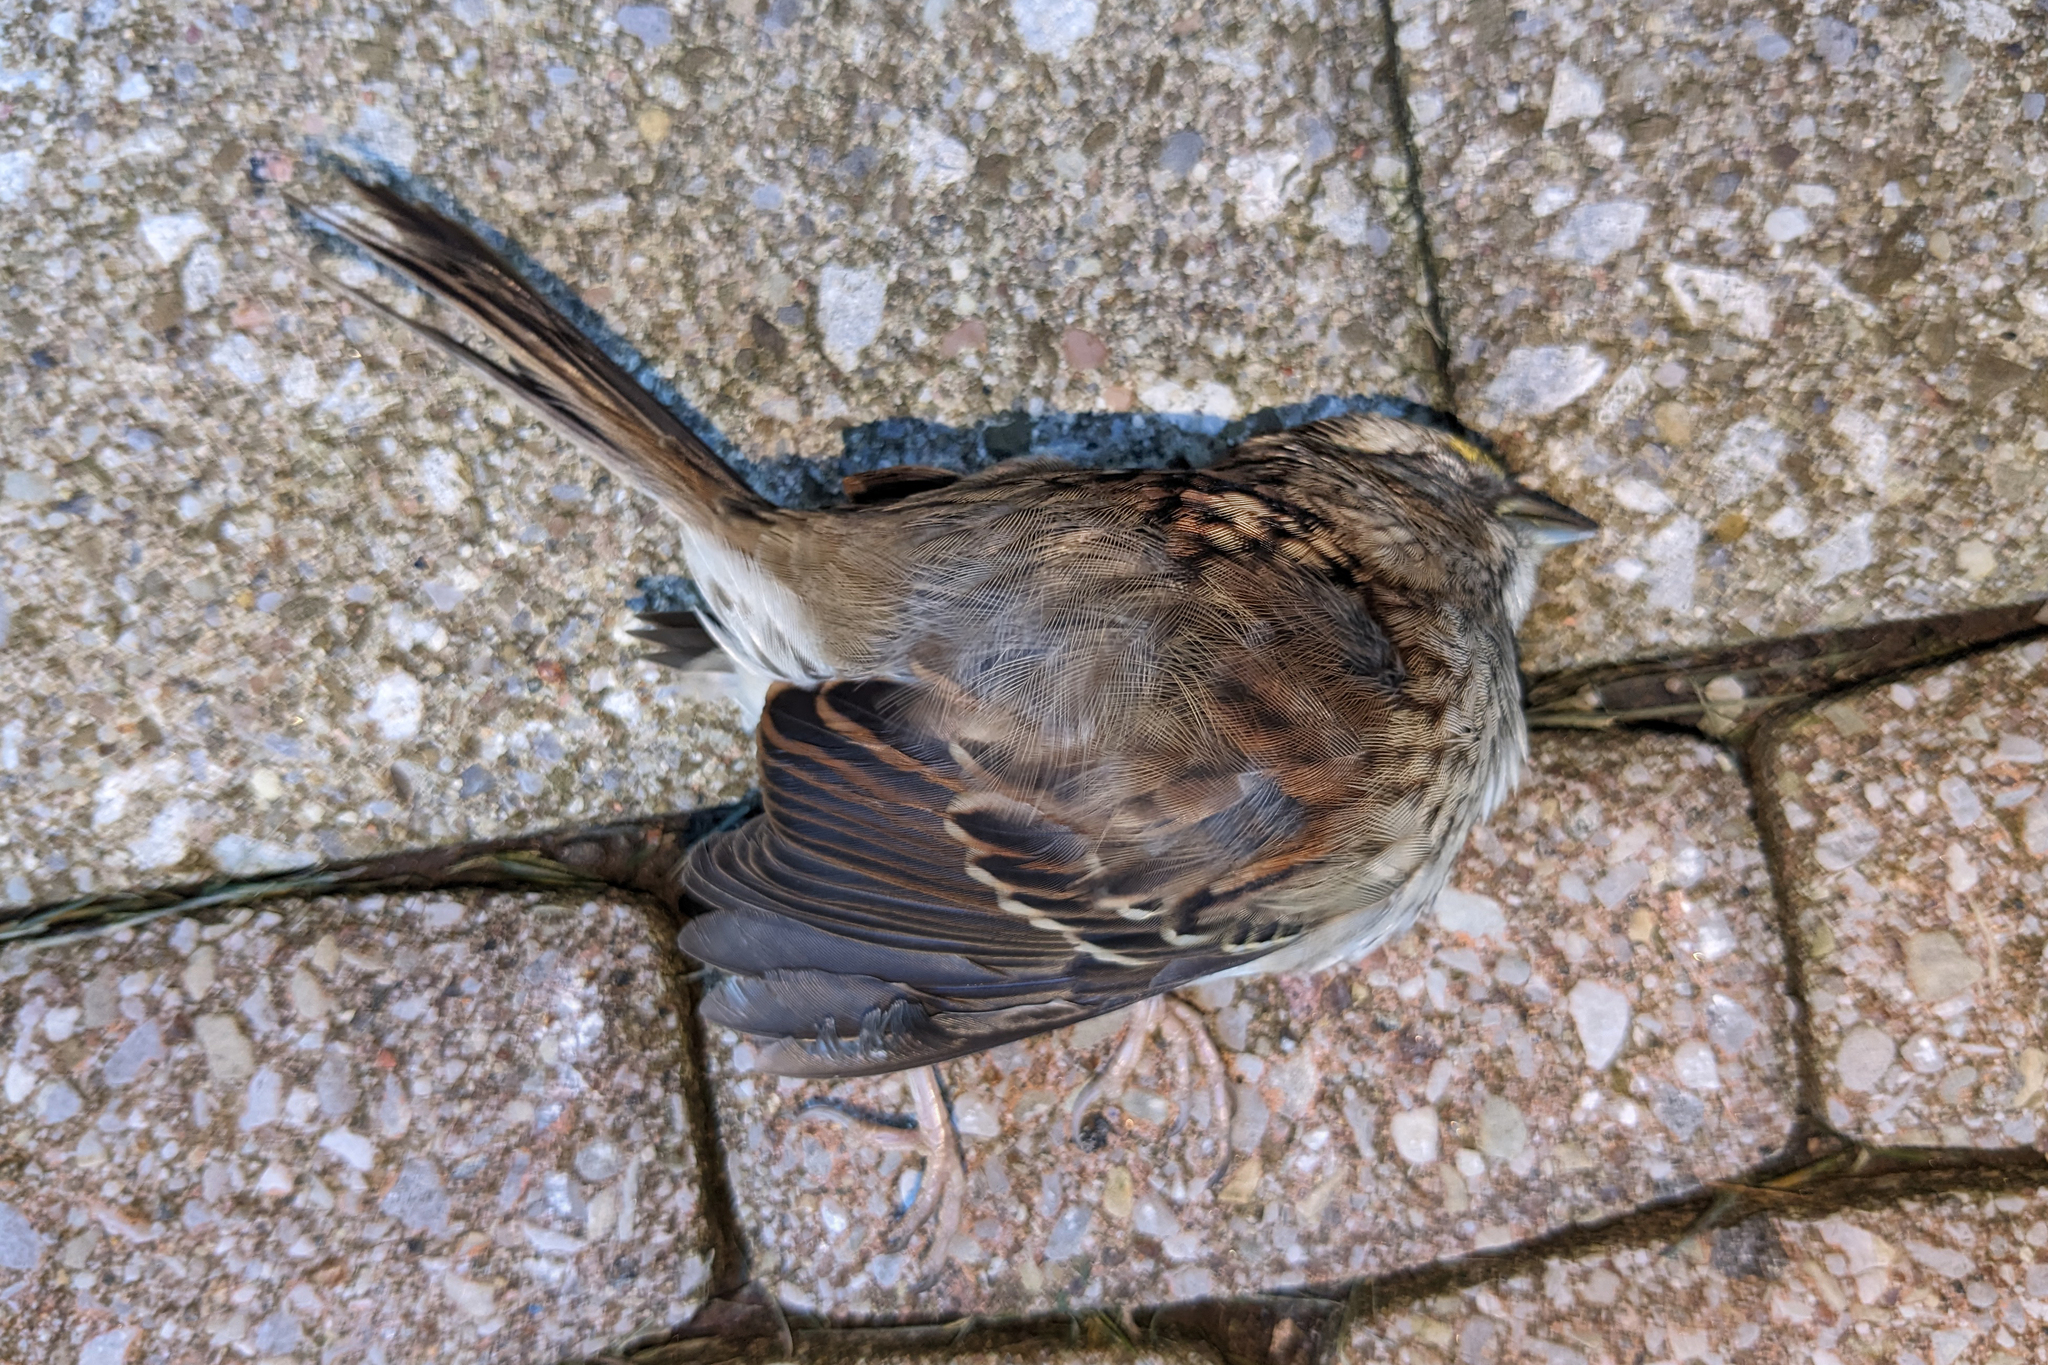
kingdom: Animalia
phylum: Chordata
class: Aves
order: Passeriformes
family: Passerellidae
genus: Zonotrichia
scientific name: Zonotrichia albicollis
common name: White-throated sparrow
